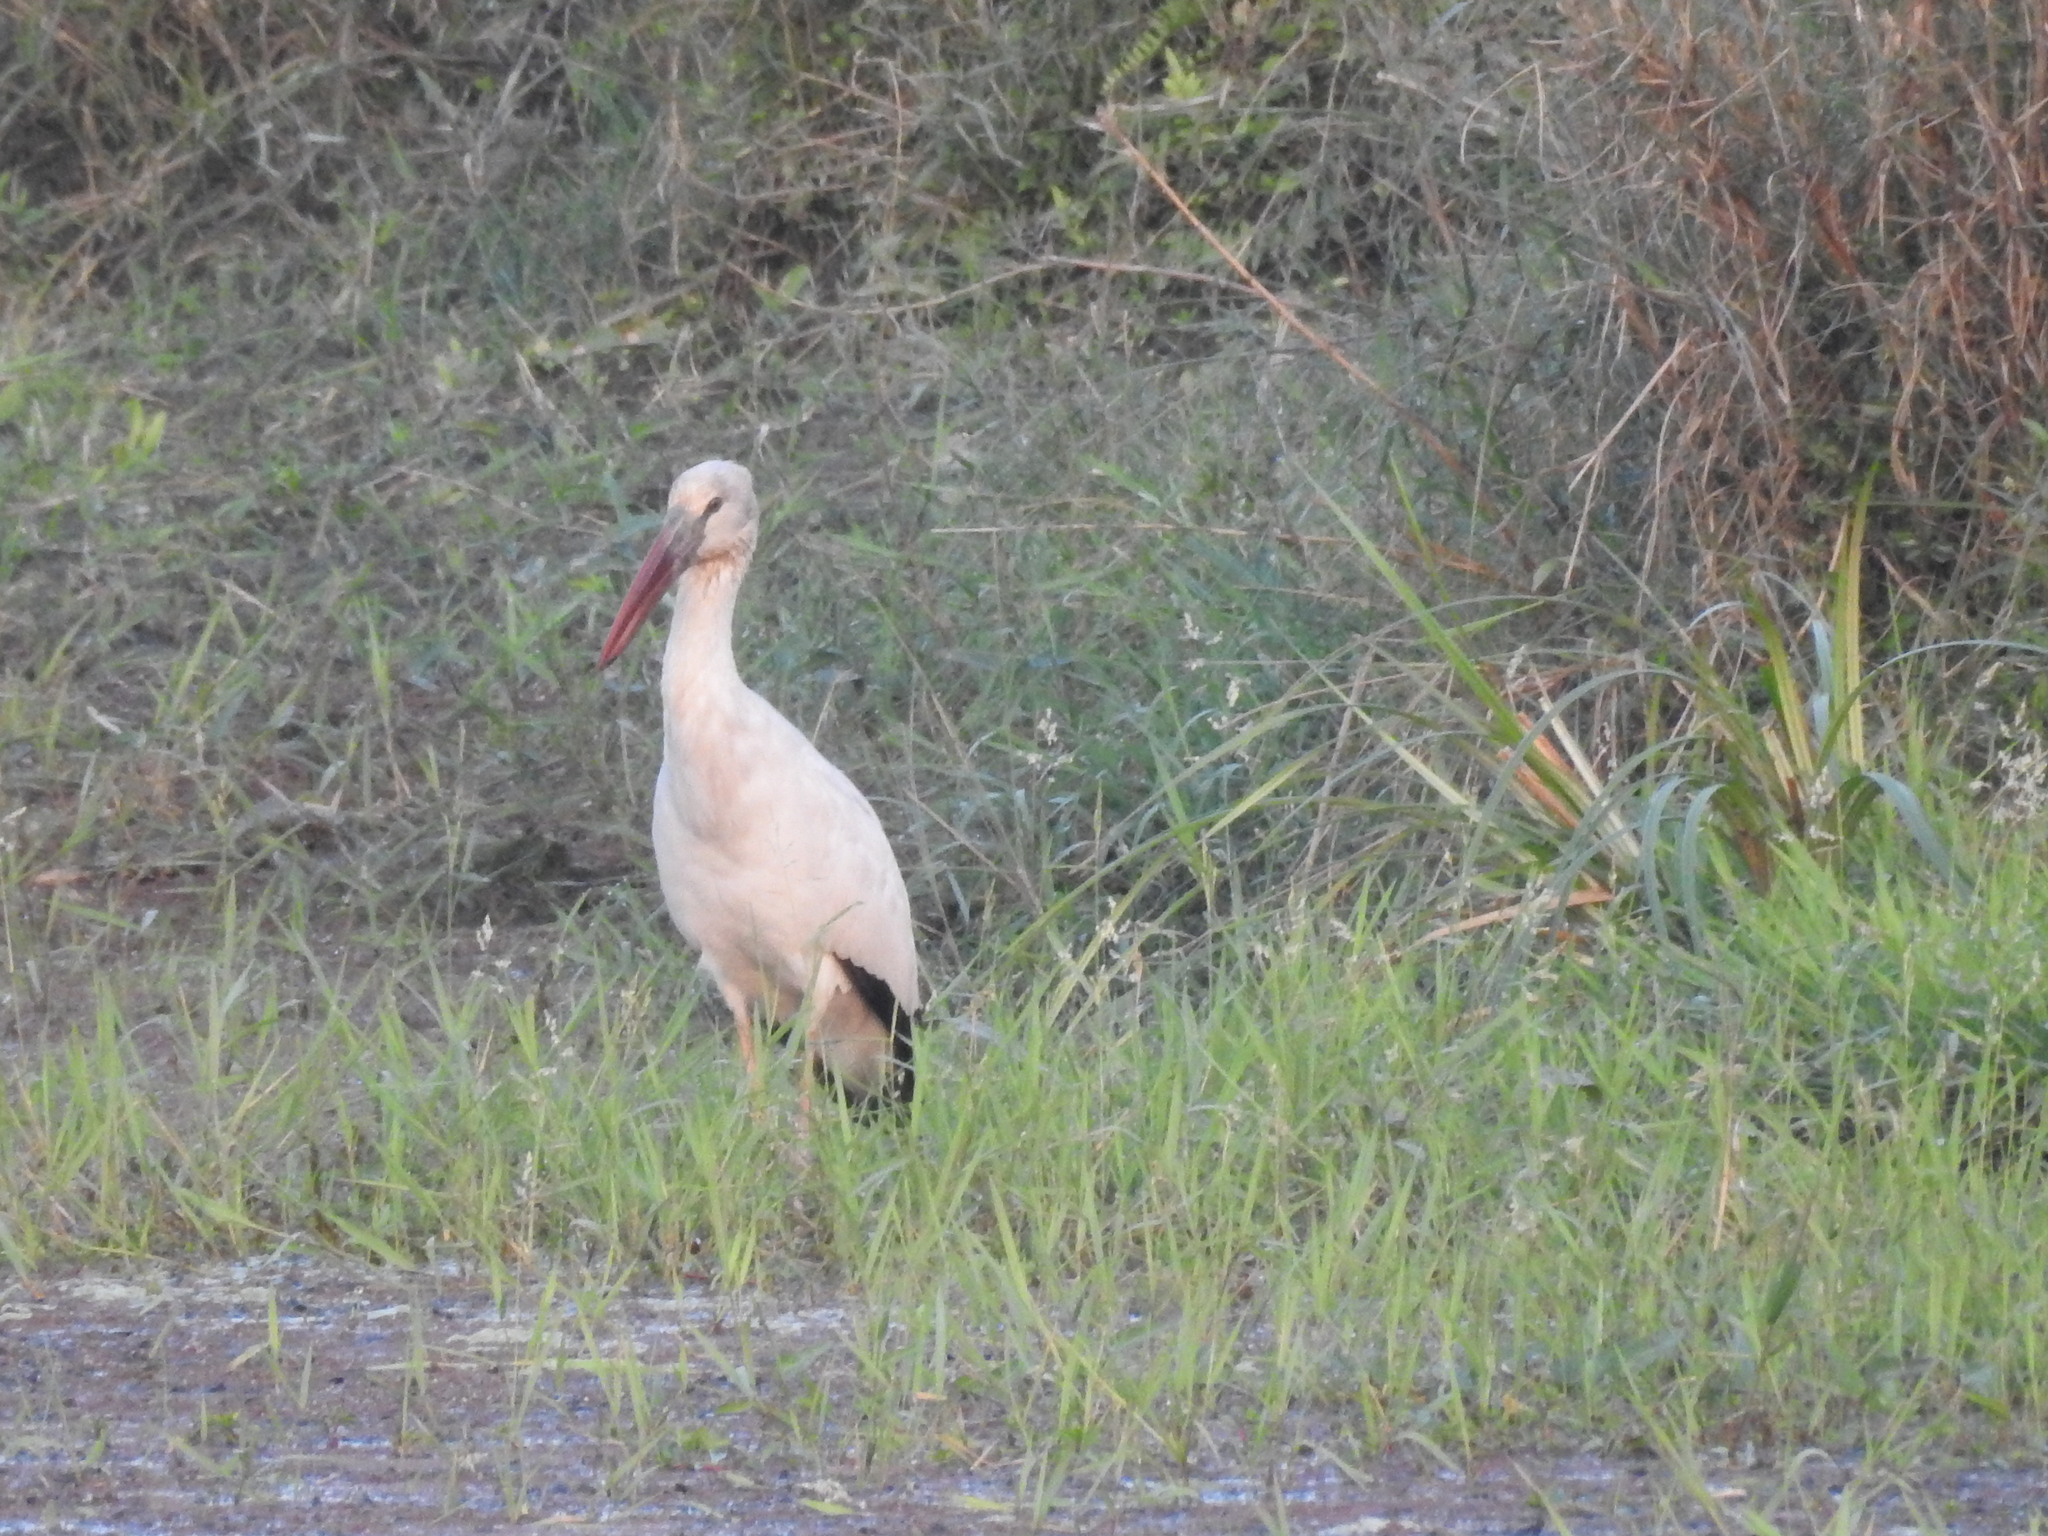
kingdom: Animalia
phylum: Chordata
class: Aves
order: Ciconiiformes
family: Ciconiidae
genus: Anastomus
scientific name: Anastomus oscitans
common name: Asian openbill
